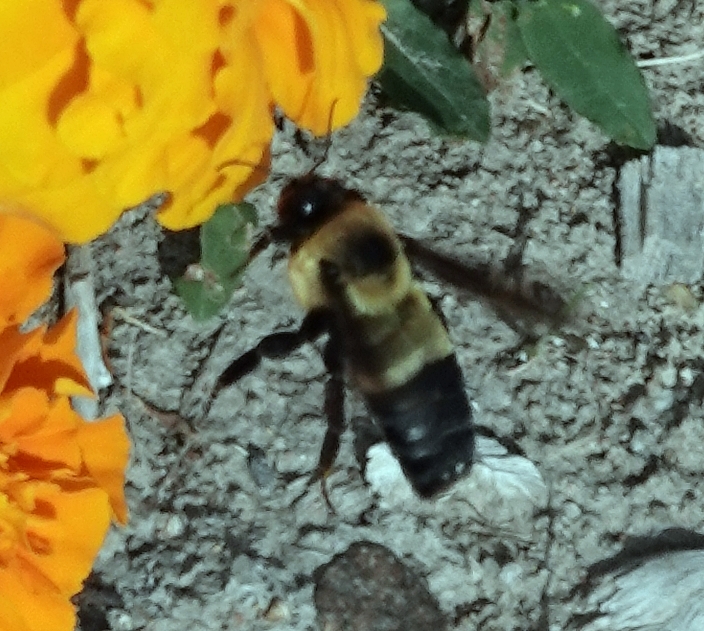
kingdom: Animalia
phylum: Arthropoda
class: Insecta
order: Hymenoptera
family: Apidae
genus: Bombus
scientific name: Bombus fraternus
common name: Southern plains bumble bee
